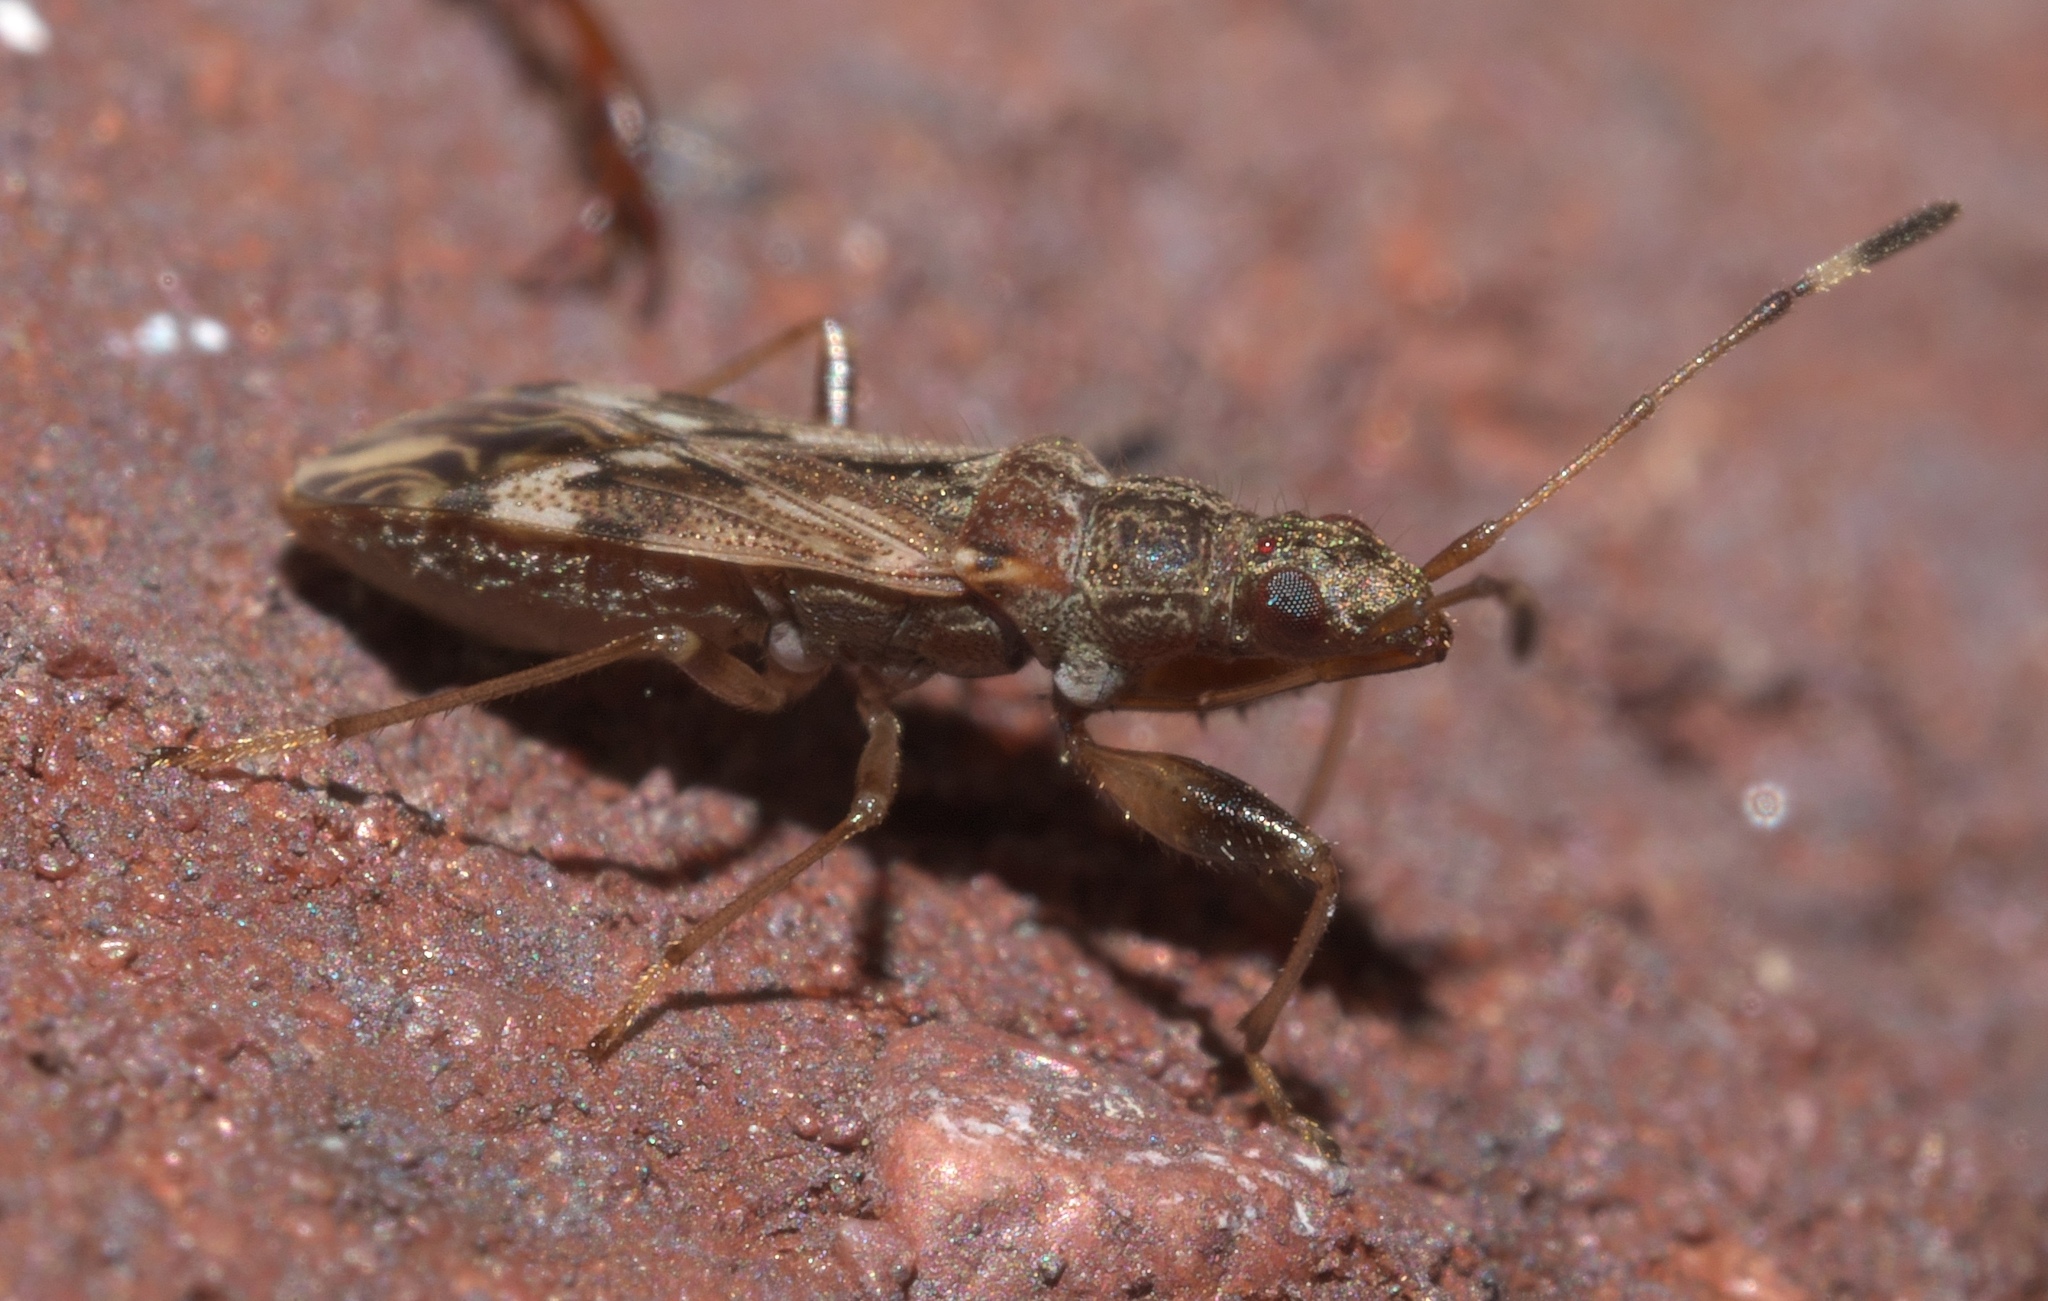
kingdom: Animalia
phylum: Arthropoda
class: Insecta
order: Hemiptera
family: Rhyparochromidae
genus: Neopamera
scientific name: Neopamera albocincta
